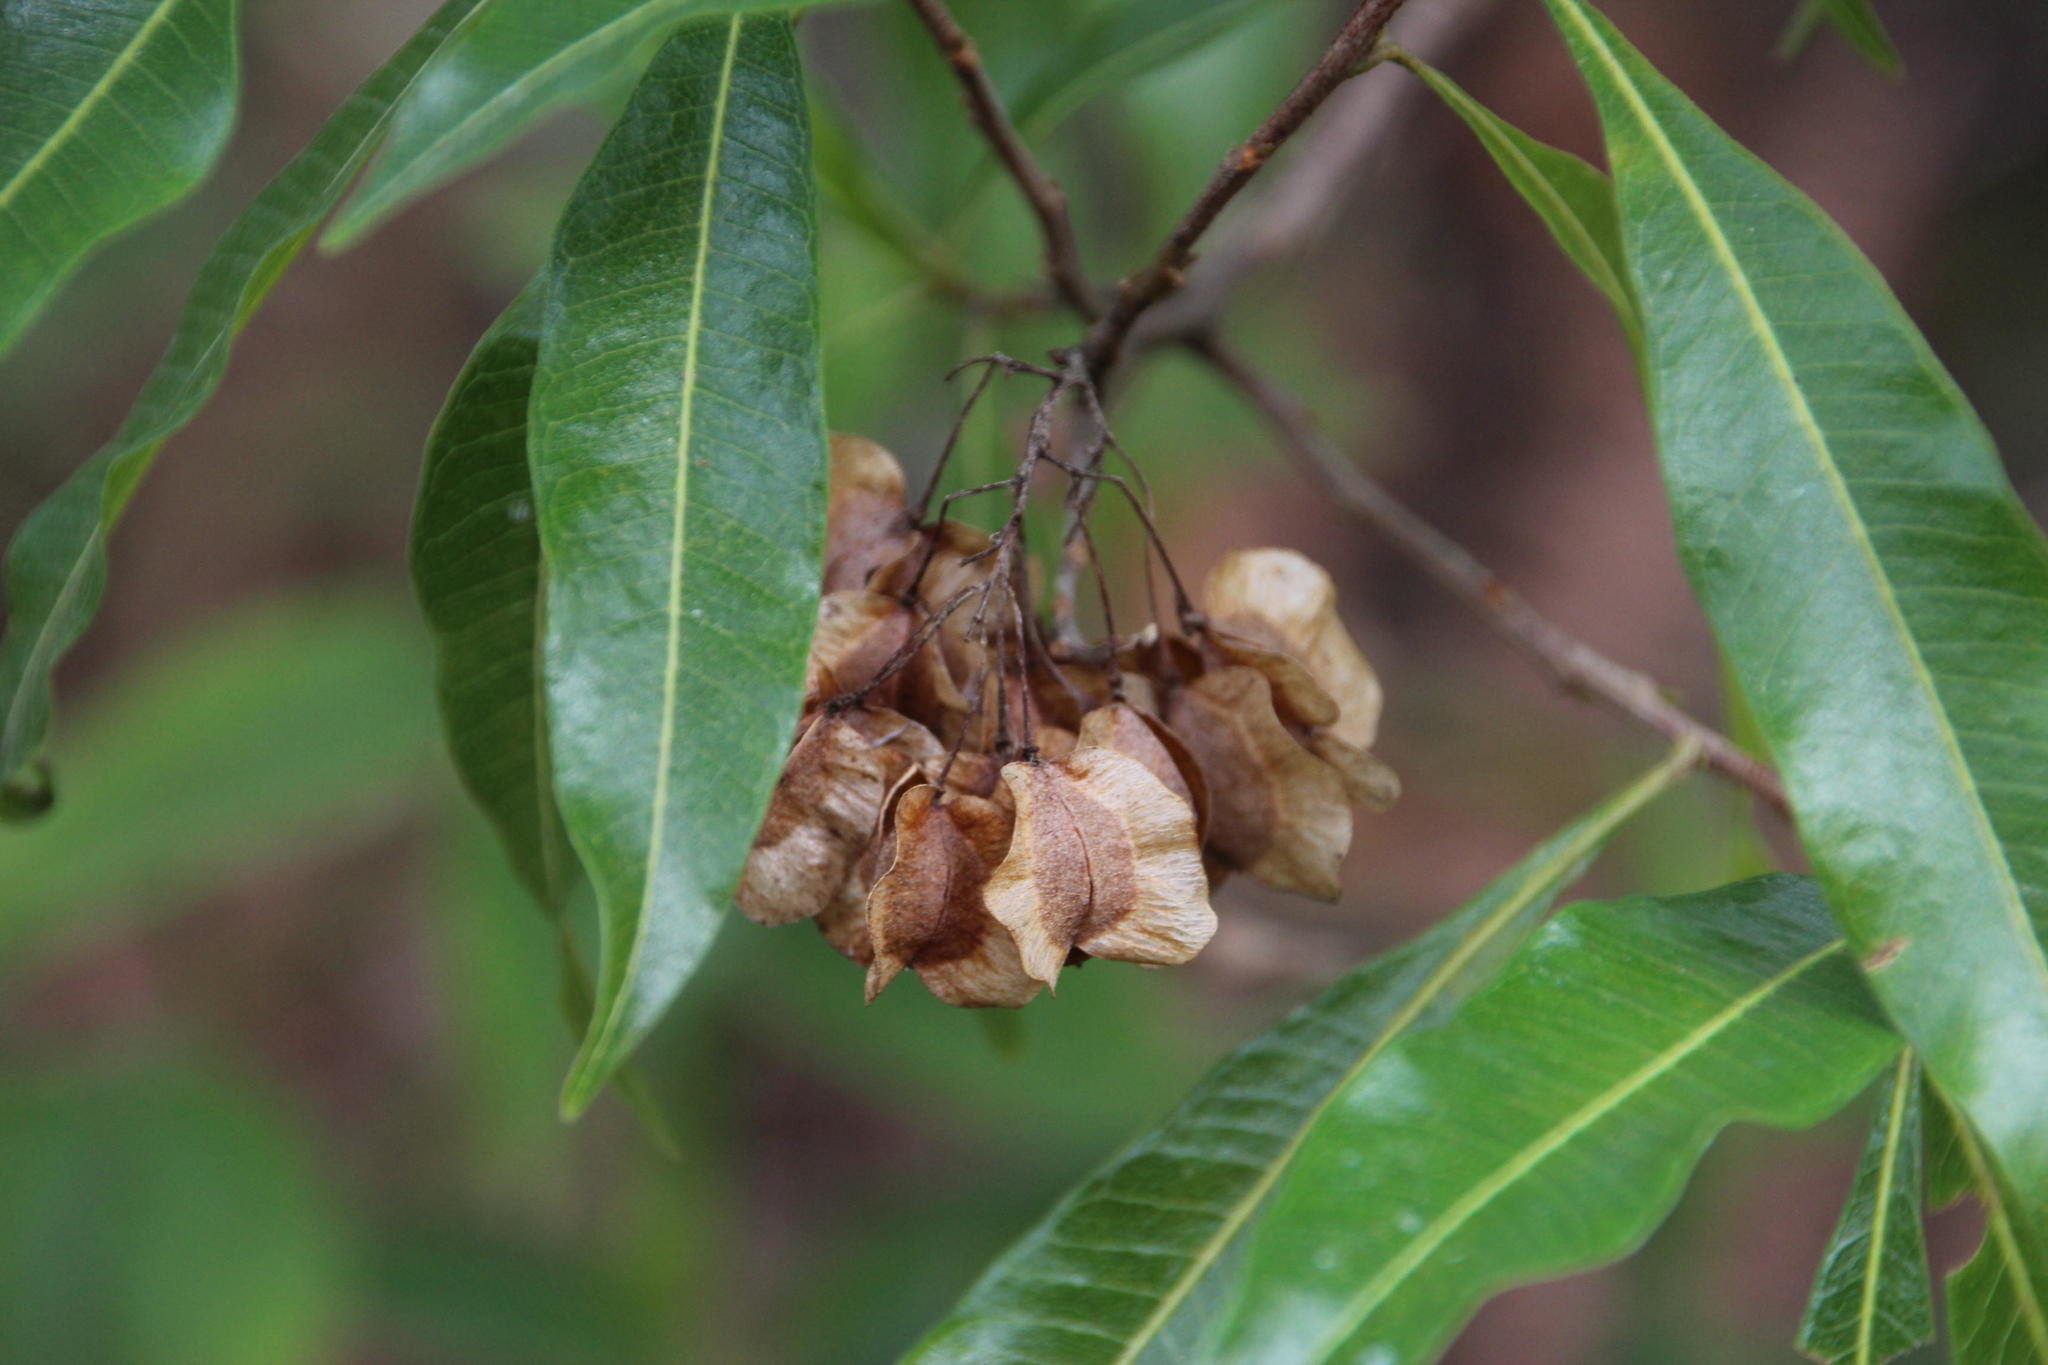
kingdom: Plantae
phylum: Tracheophyta
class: Magnoliopsida
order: Sapindales
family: Sapindaceae
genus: Dodonaea
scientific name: Dodonaea viscosa
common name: Hopbush
